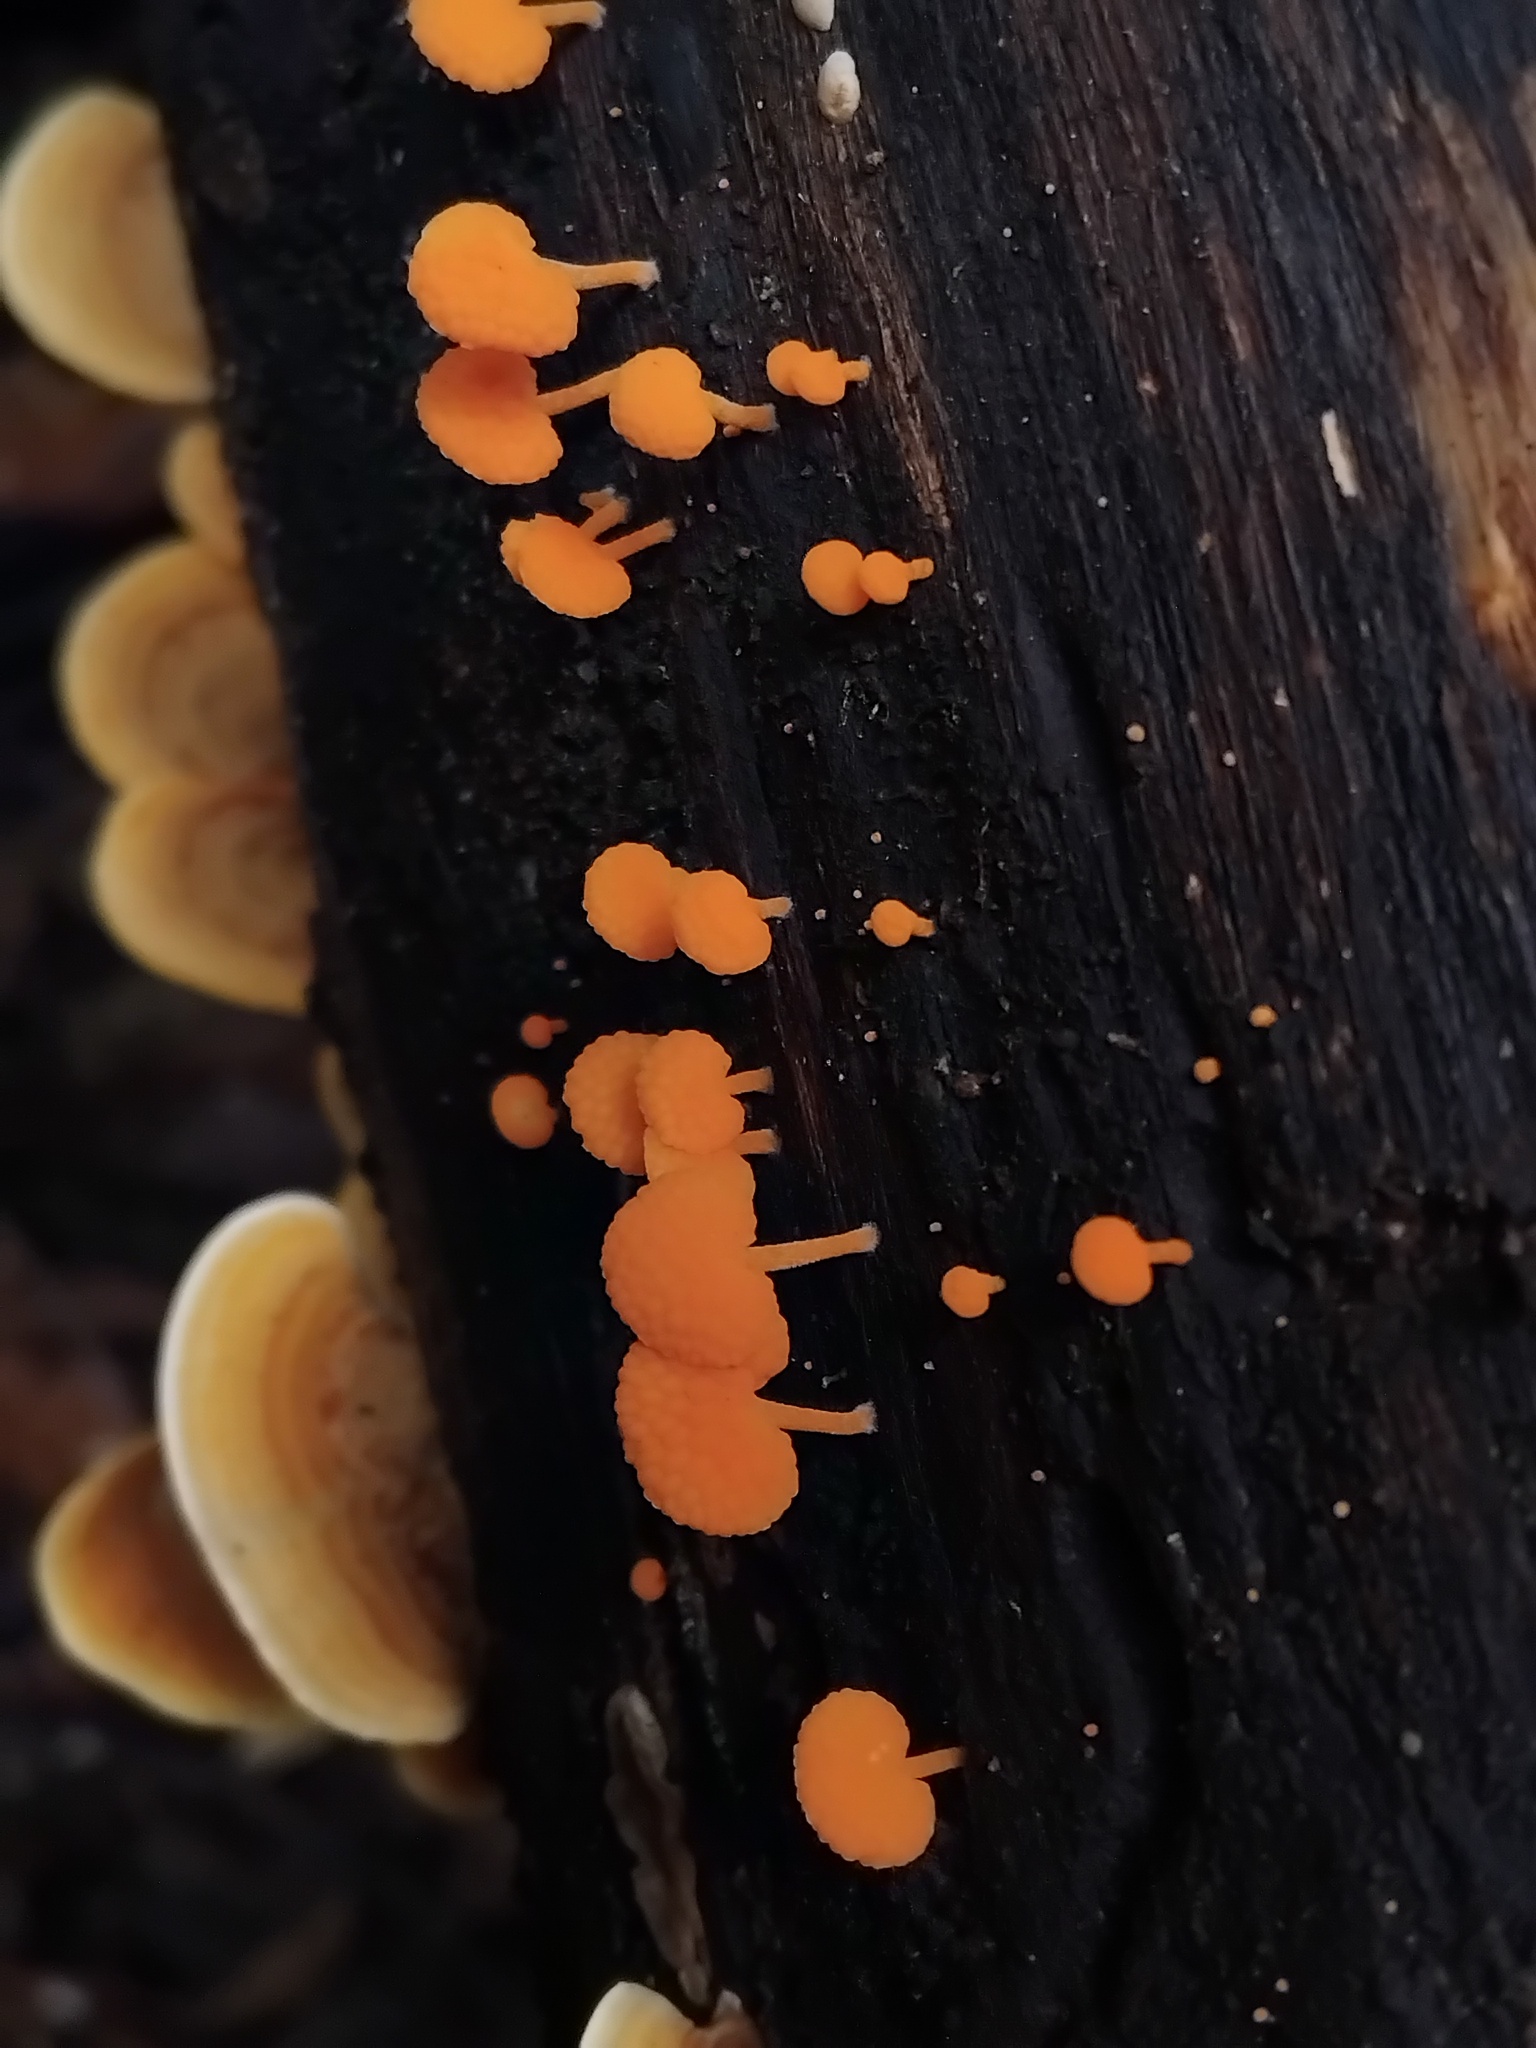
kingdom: Fungi
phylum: Basidiomycota
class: Agaricomycetes
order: Russulales
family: Stereaceae
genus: Stereum
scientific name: Stereum ostrea
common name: False turkeytail
